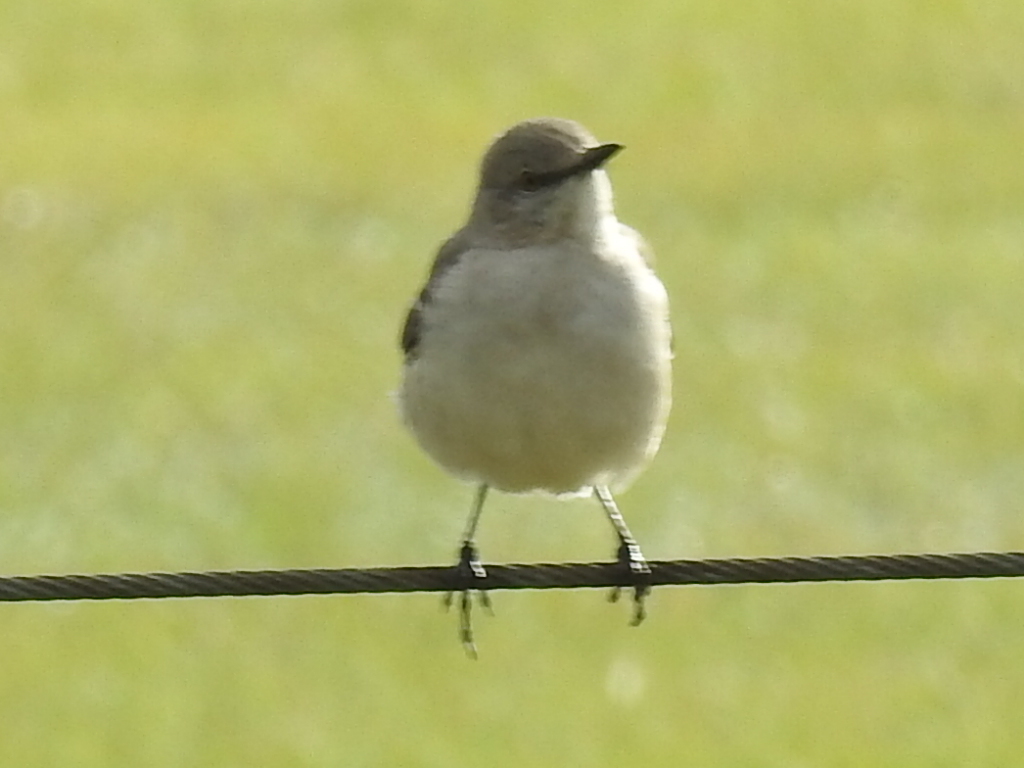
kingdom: Animalia
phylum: Chordata
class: Aves
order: Passeriformes
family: Mimidae
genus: Mimus
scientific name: Mimus polyglottos
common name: Northern mockingbird
